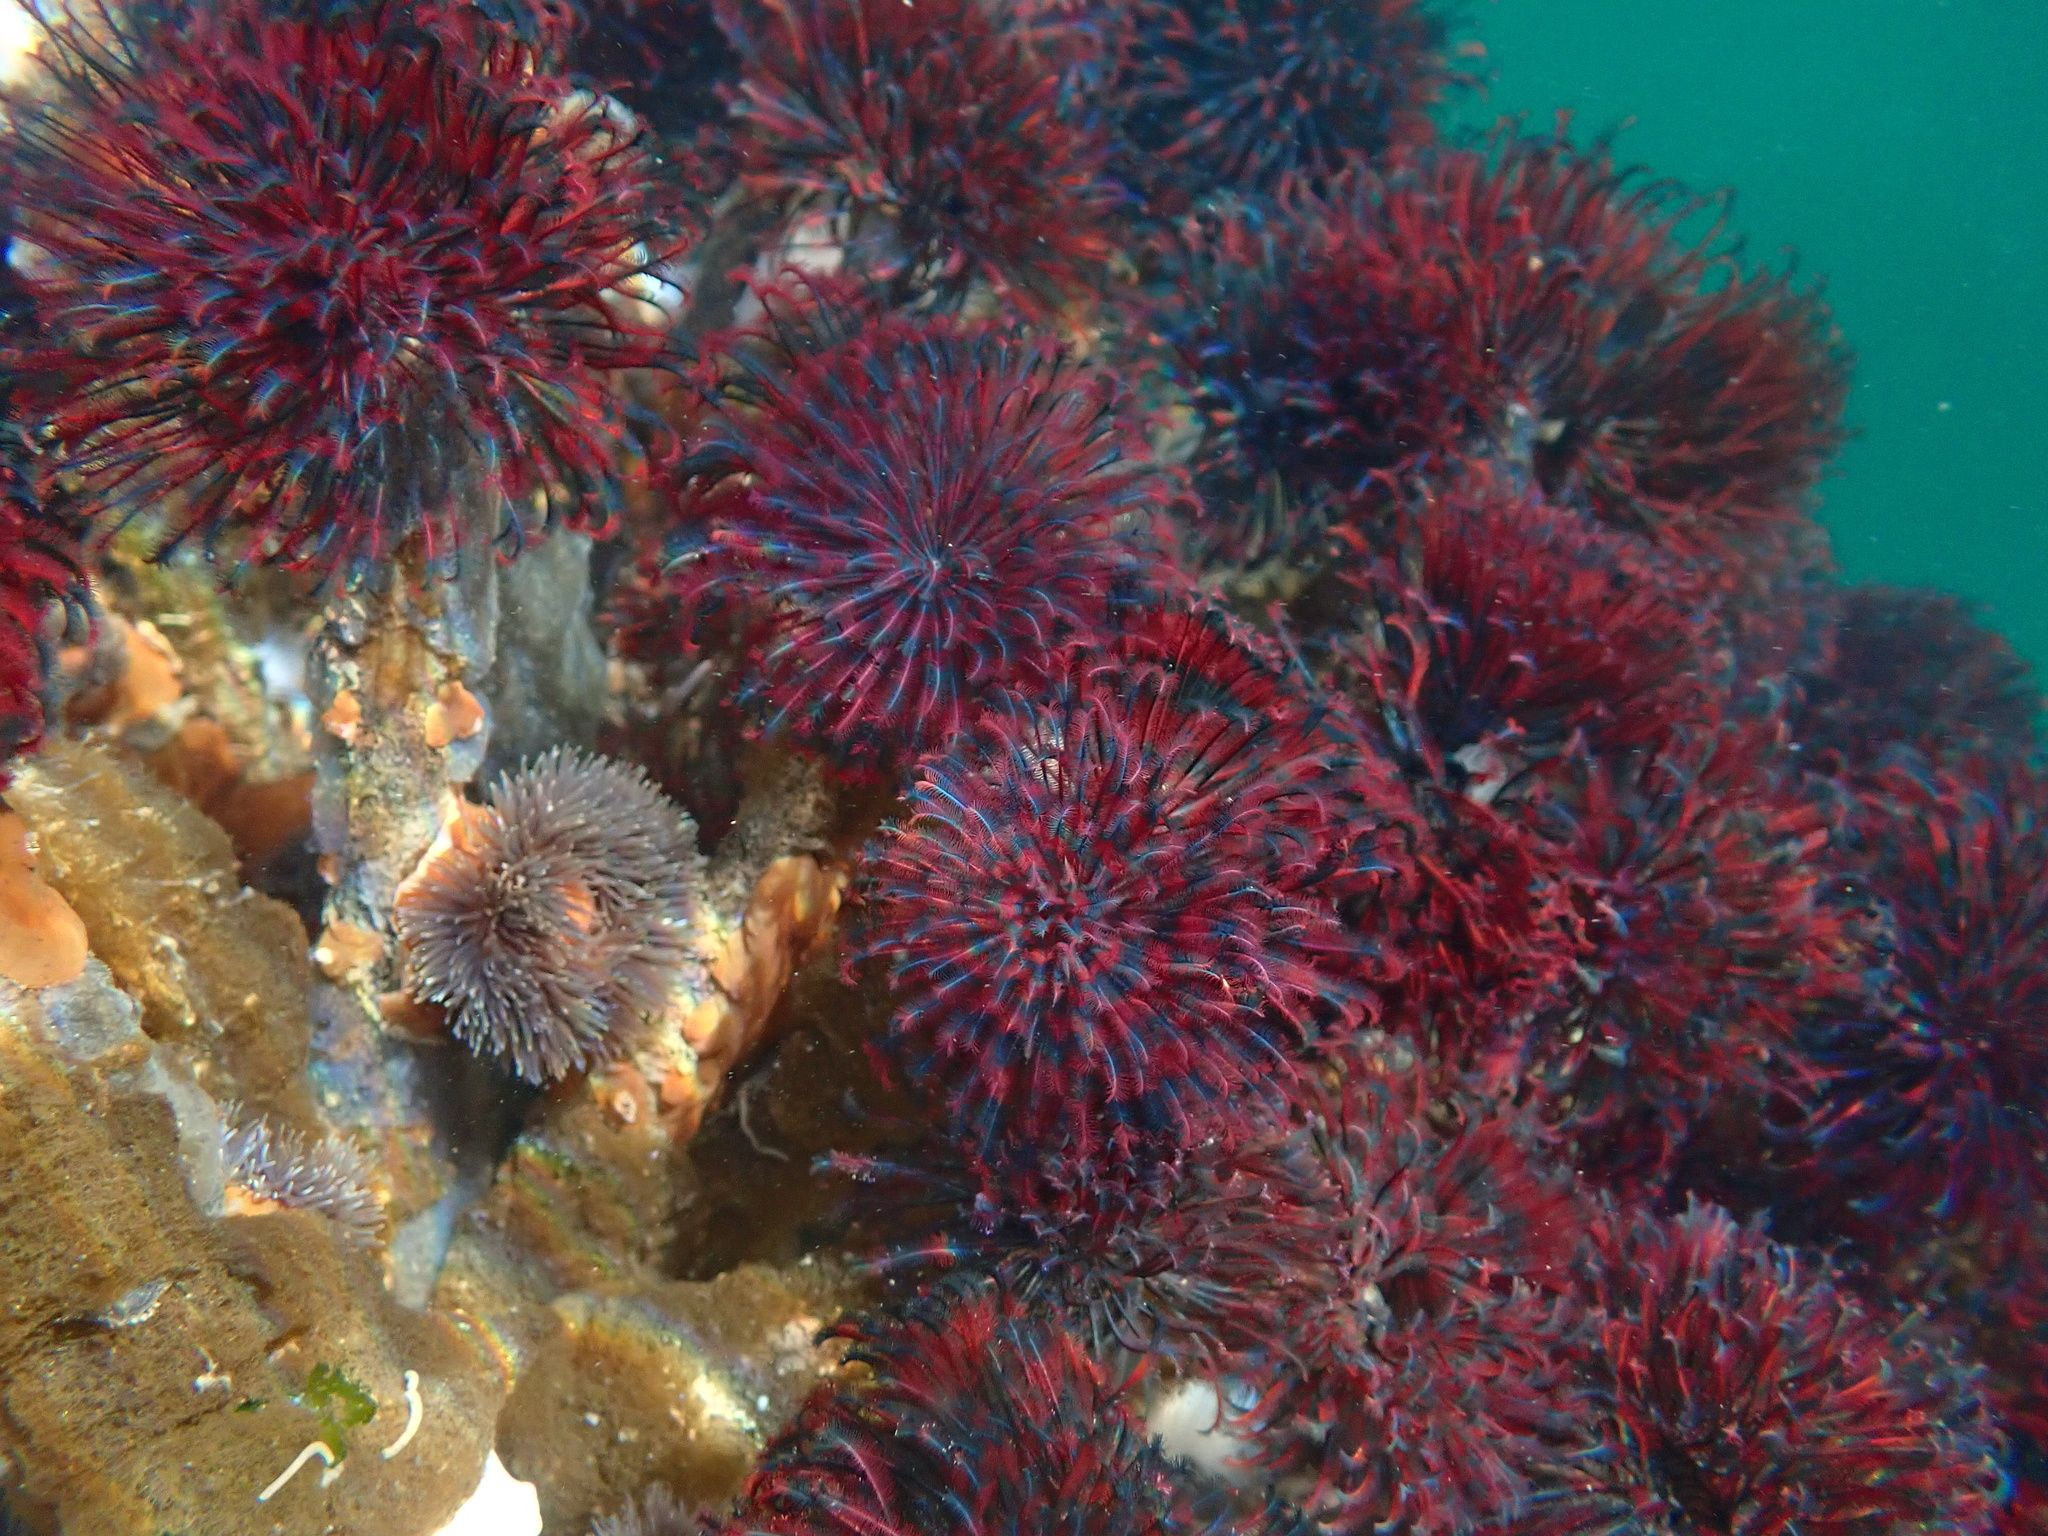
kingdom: Animalia
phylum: Annelida
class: Polychaeta
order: Sabellida
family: Sabellidae
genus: Eudistylia
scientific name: Eudistylia vancouveri
